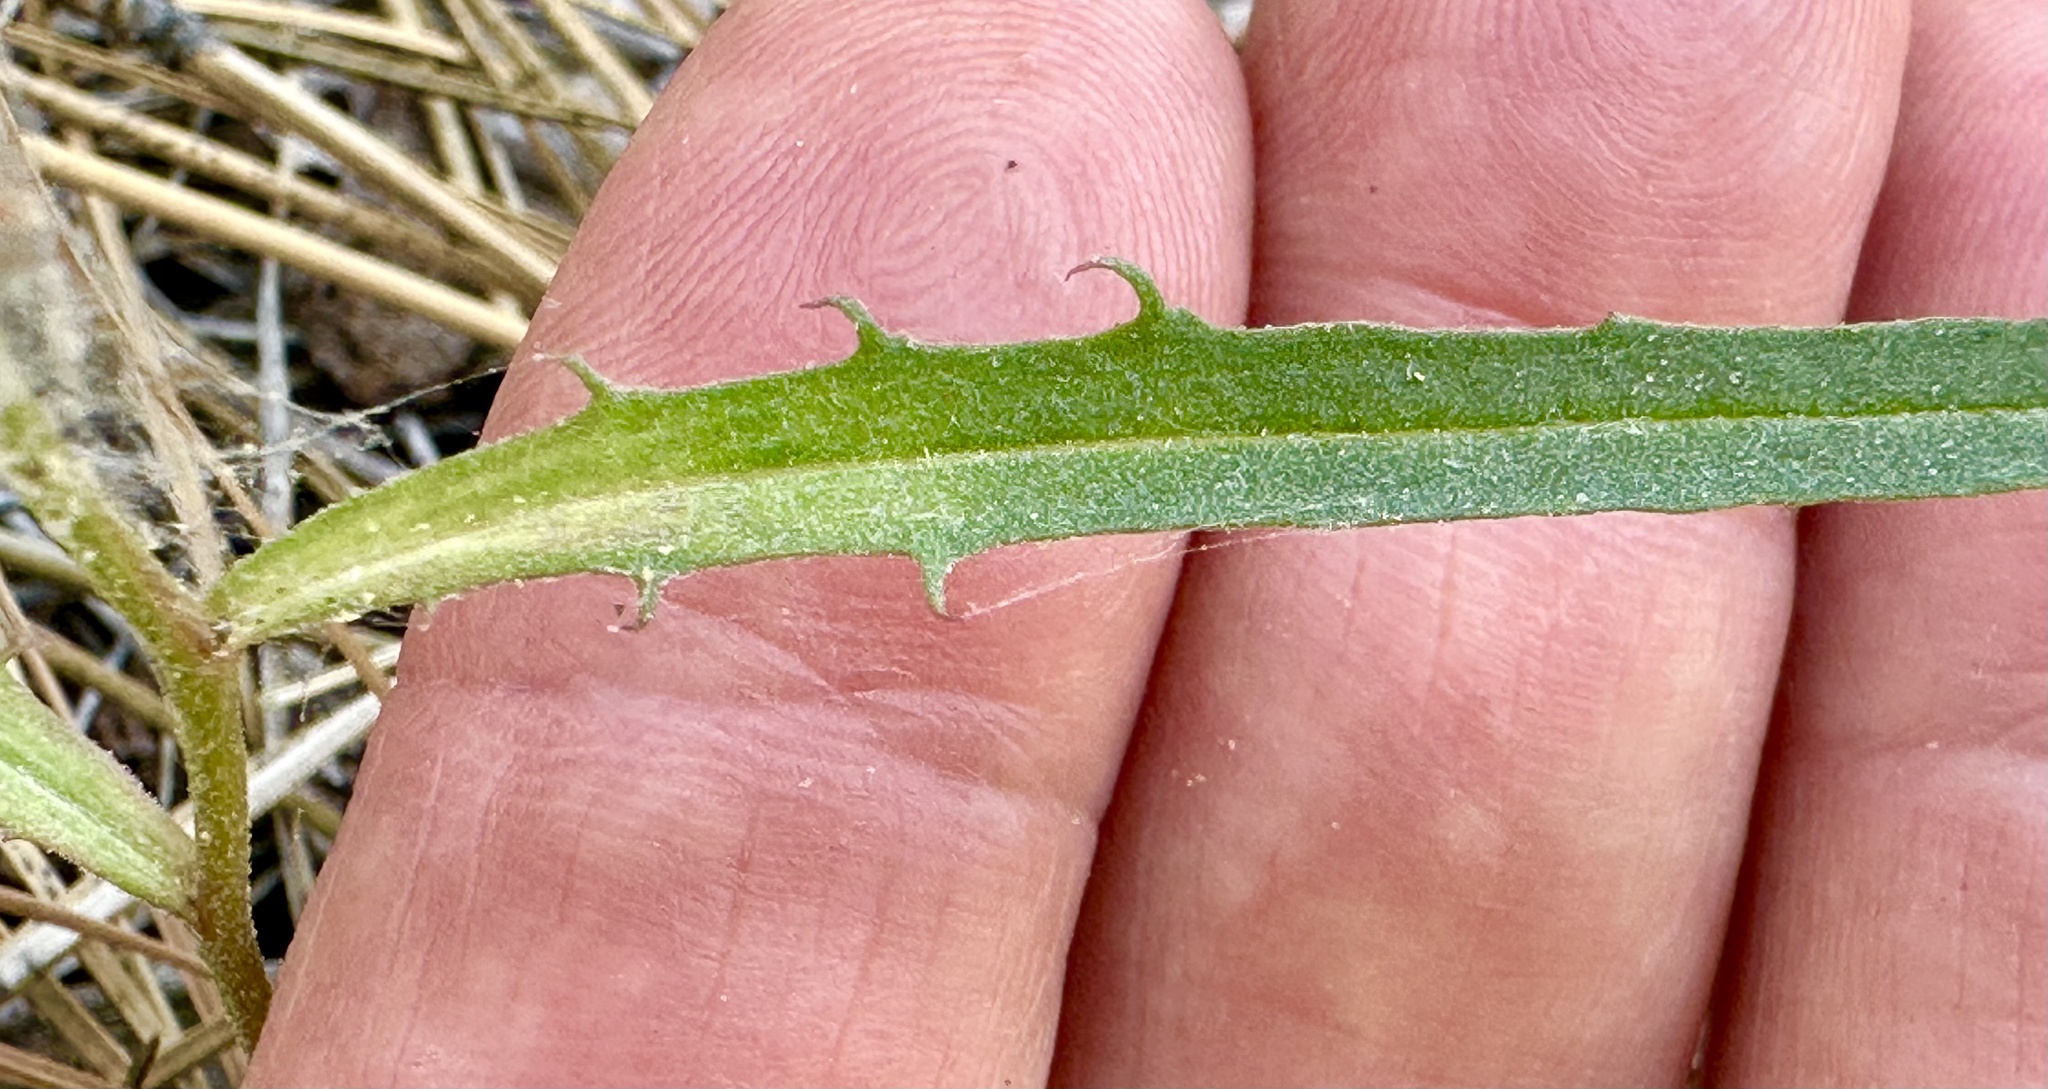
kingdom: Plantae
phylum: Tracheophyta
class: Magnoliopsida
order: Asterales
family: Asteraceae
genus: Stephanomeria
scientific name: Stephanomeria lactucina
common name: Large-flowered wirelettuce
